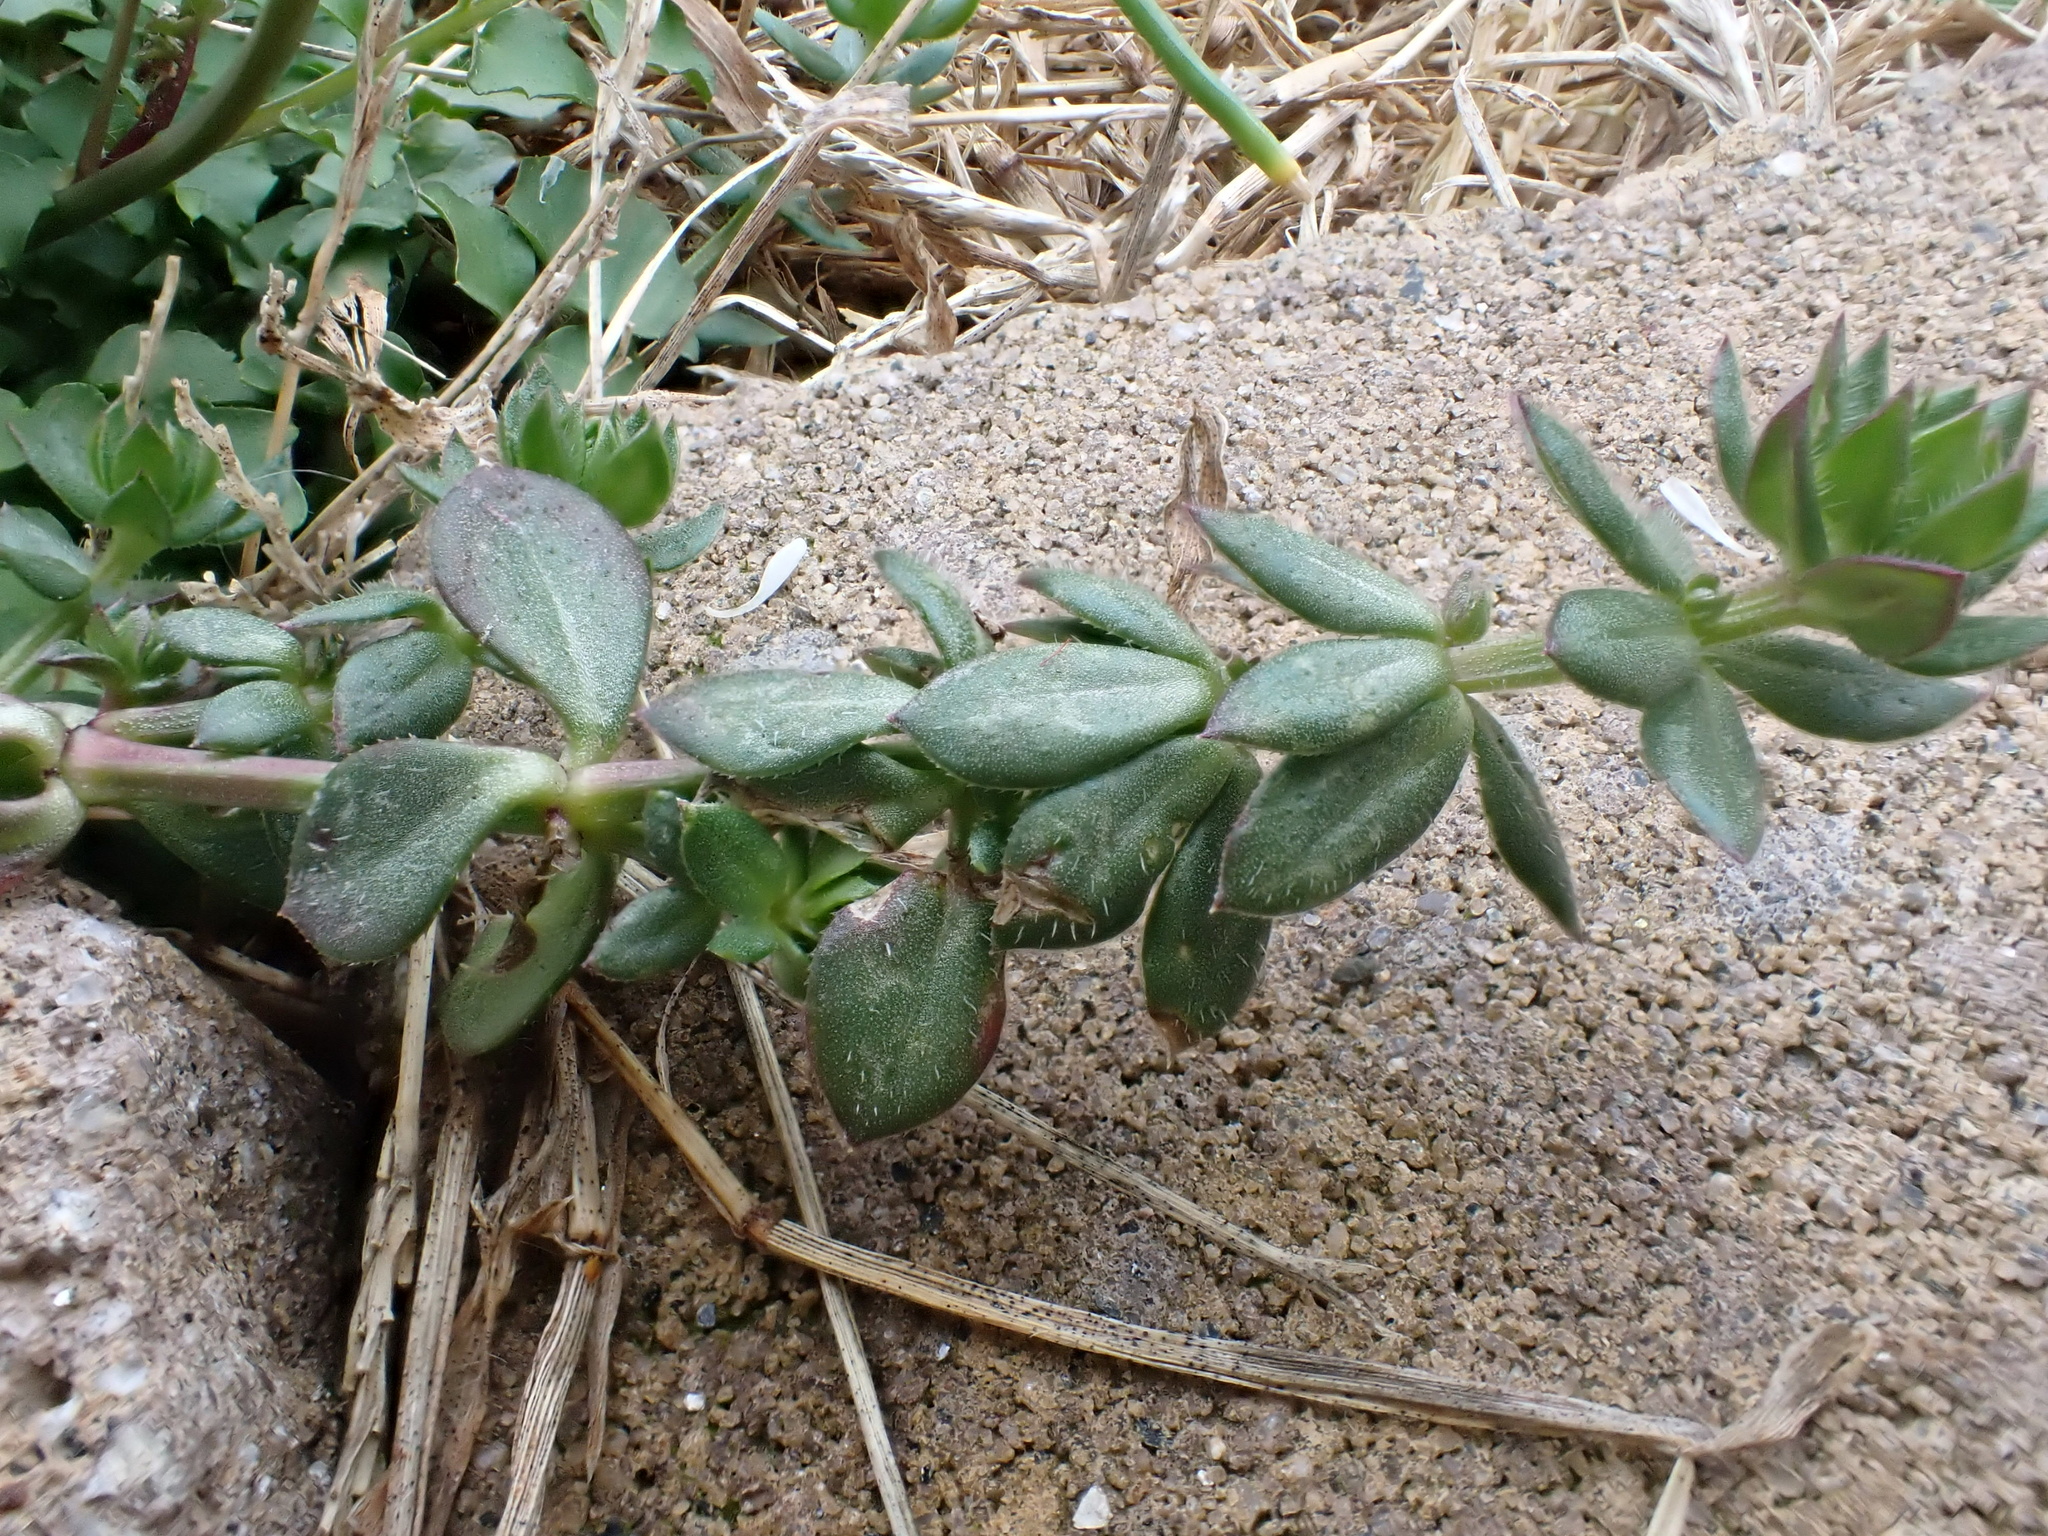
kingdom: Plantae
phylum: Tracheophyta
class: Magnoliopsida
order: Gentianales
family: Rubiaceae
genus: Sherardia
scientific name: Sherardia arvensis
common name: Field madder
